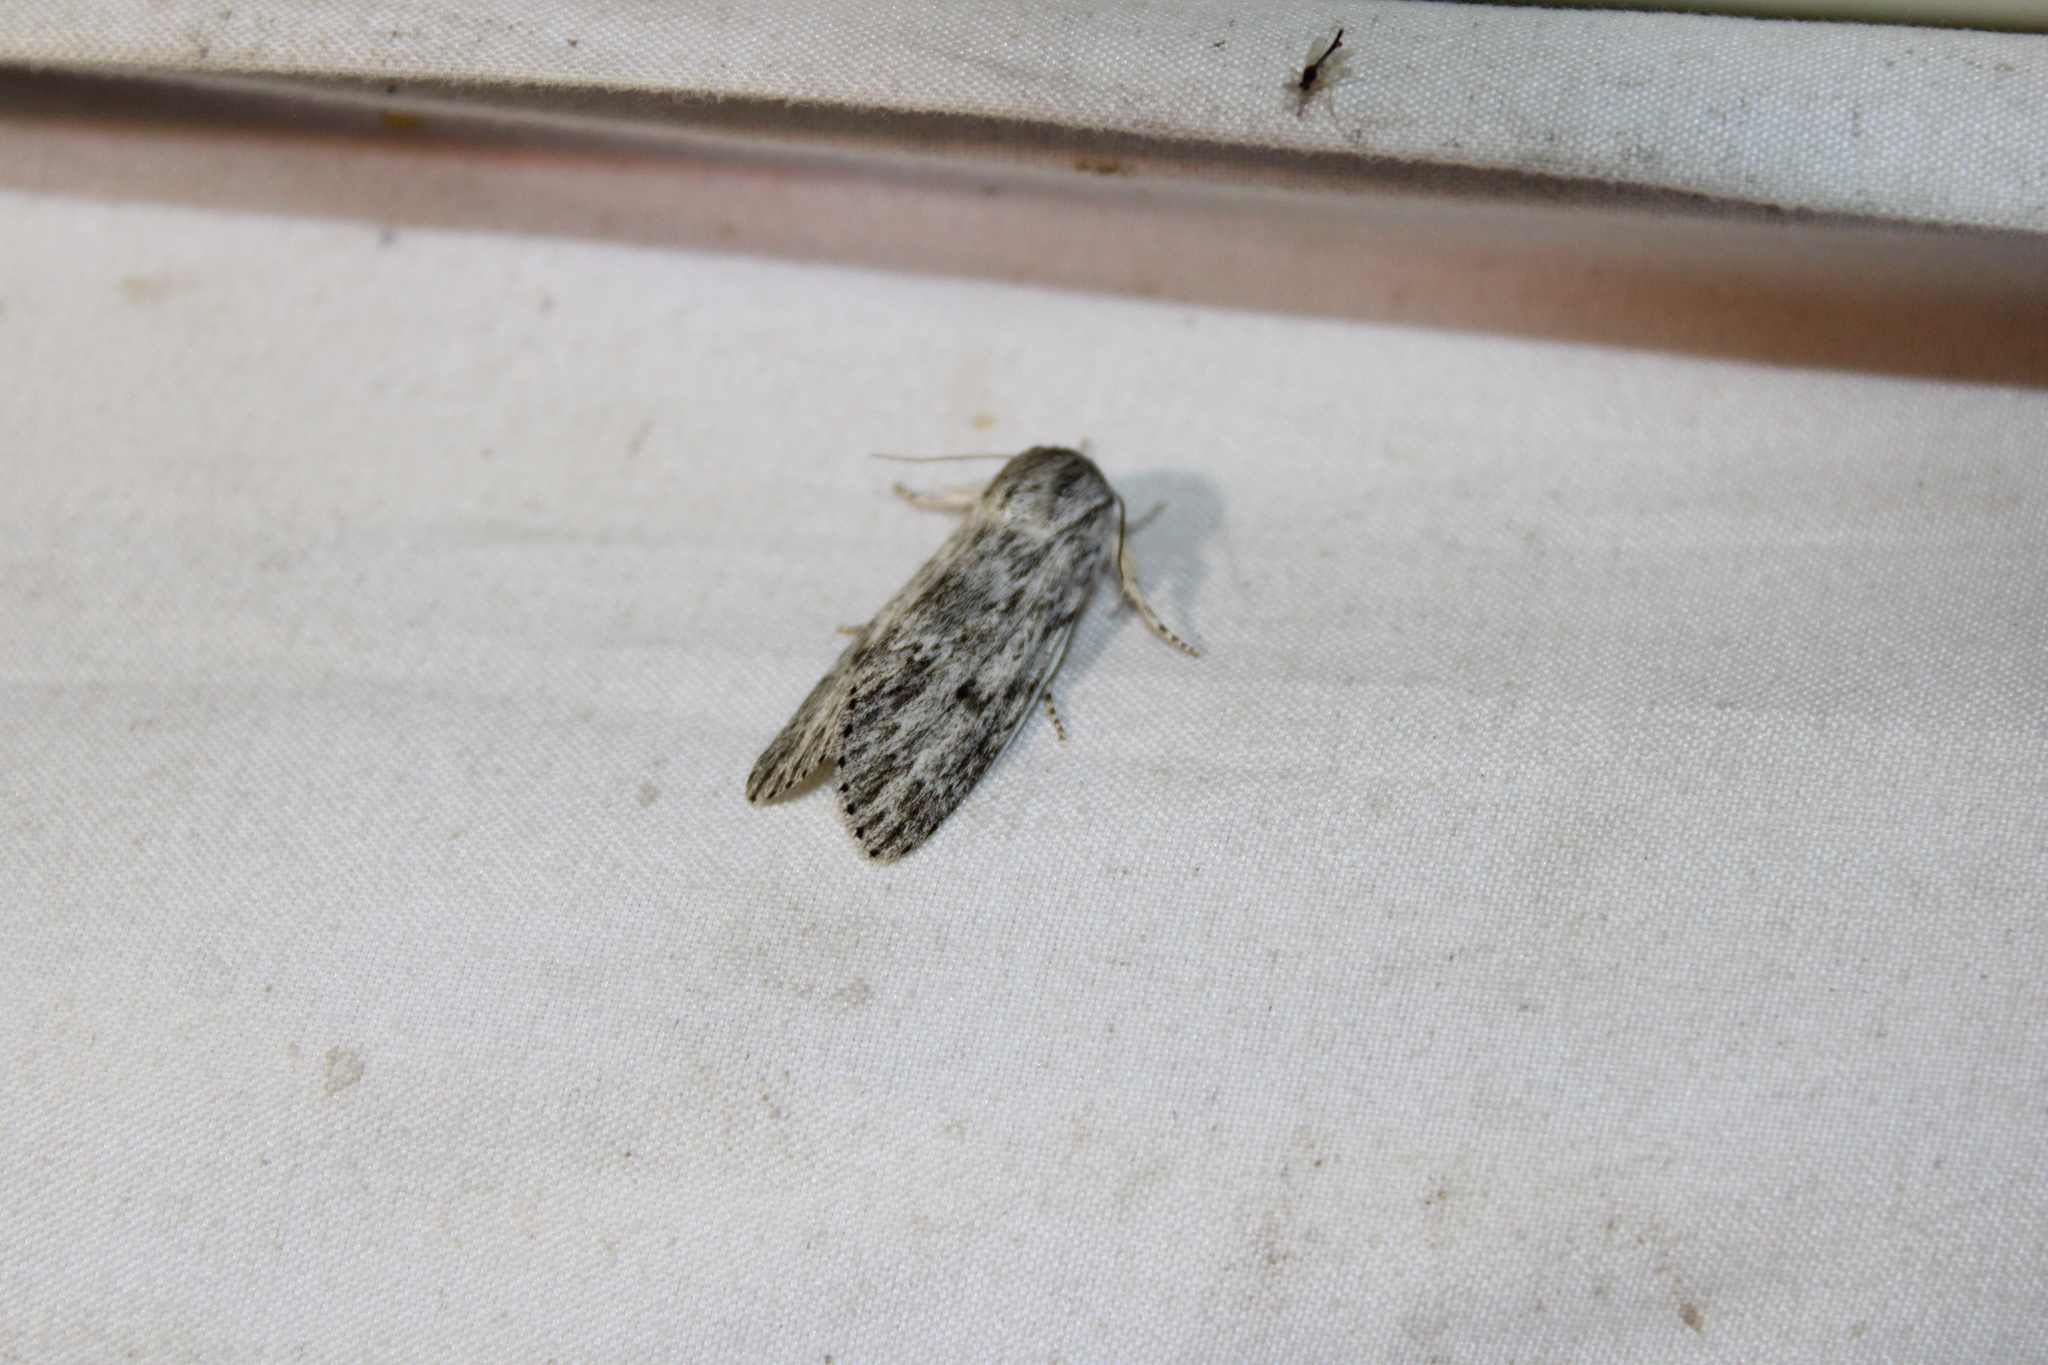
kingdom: Animalia
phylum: Arthropoda
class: Insecta
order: Lepidoptera
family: Noctuidae
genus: Acronicta
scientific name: Acronicta oblinita
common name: Smeared dagger
